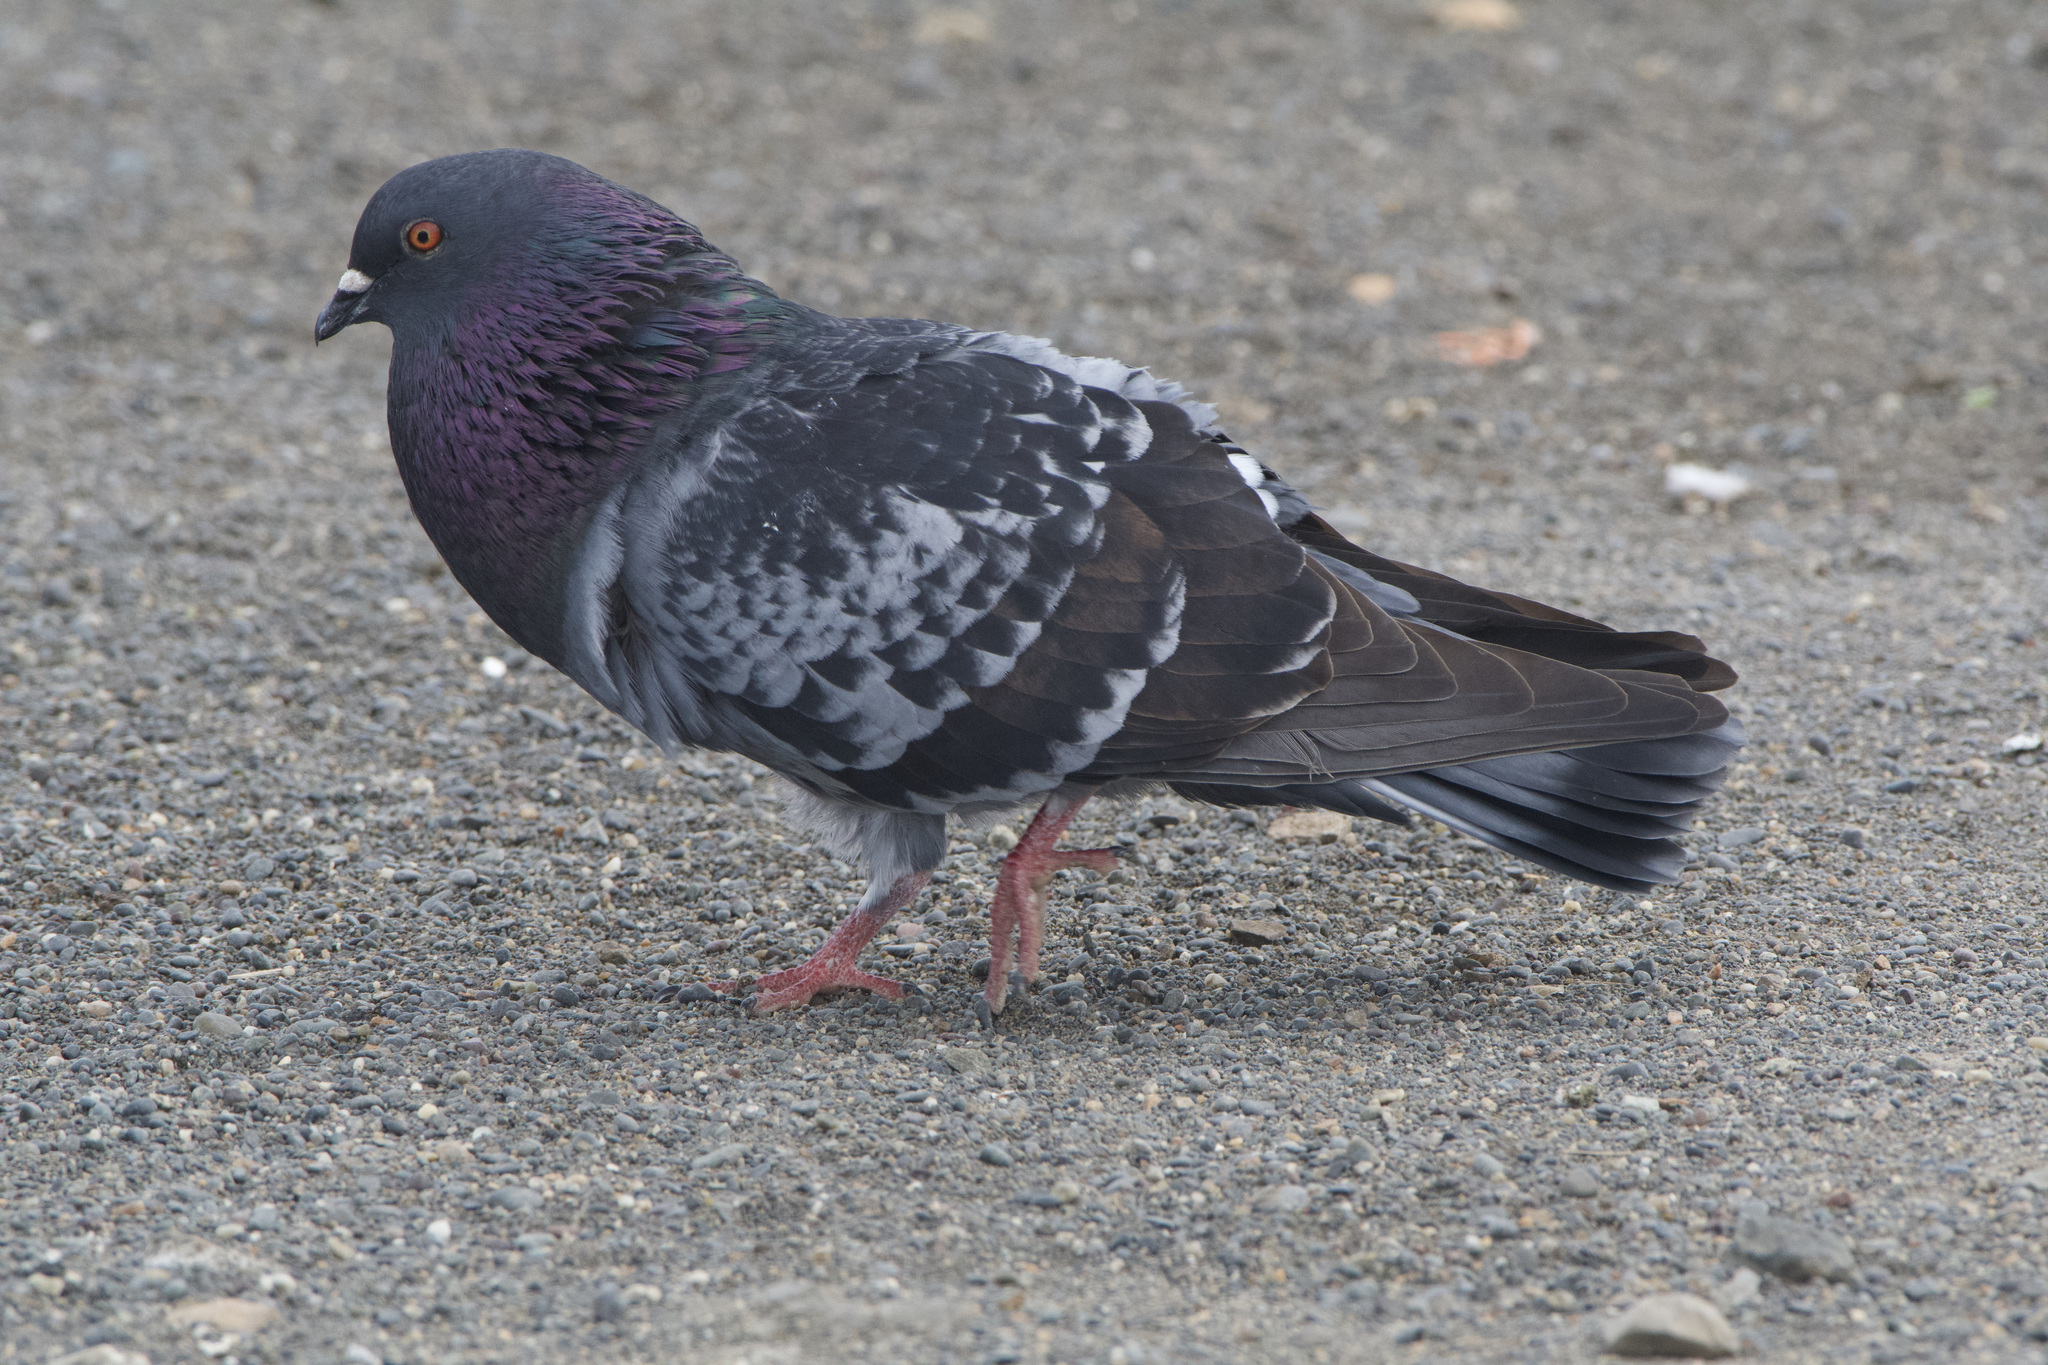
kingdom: Animalia
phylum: Chordata
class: Aves
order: Columbiformes
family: Columbidae
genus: Columba
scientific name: Columba livia
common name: Rock pigeon
